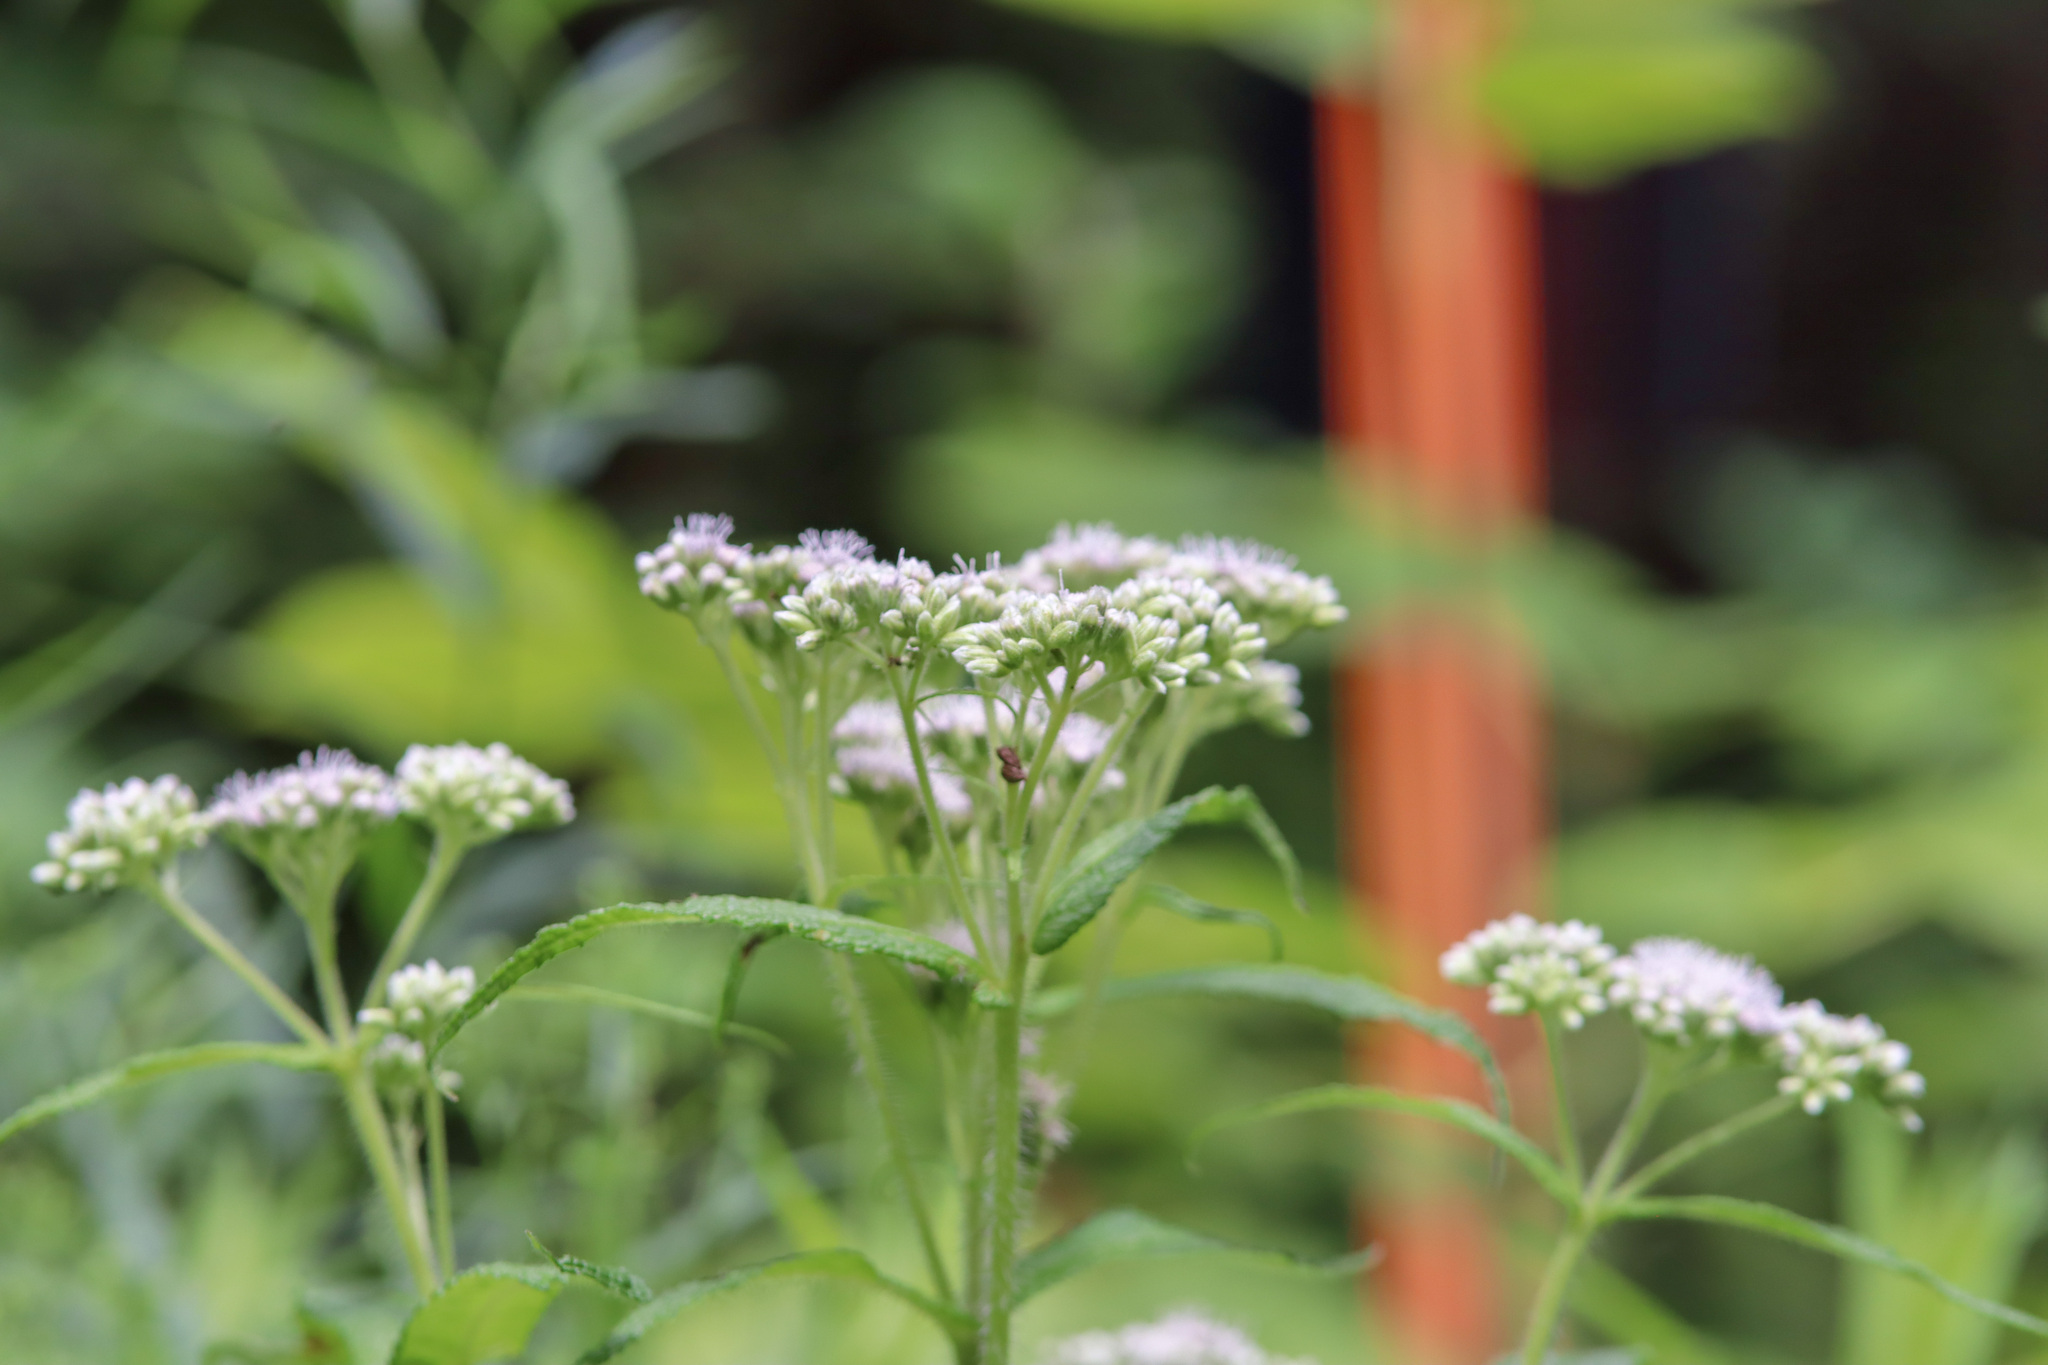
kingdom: Plantae
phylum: Tracheophyta
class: Magnoliopsida
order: Asterales
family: Asteraceae
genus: Eupatorium
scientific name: Eupatorium perfoliatum
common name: Boneset
